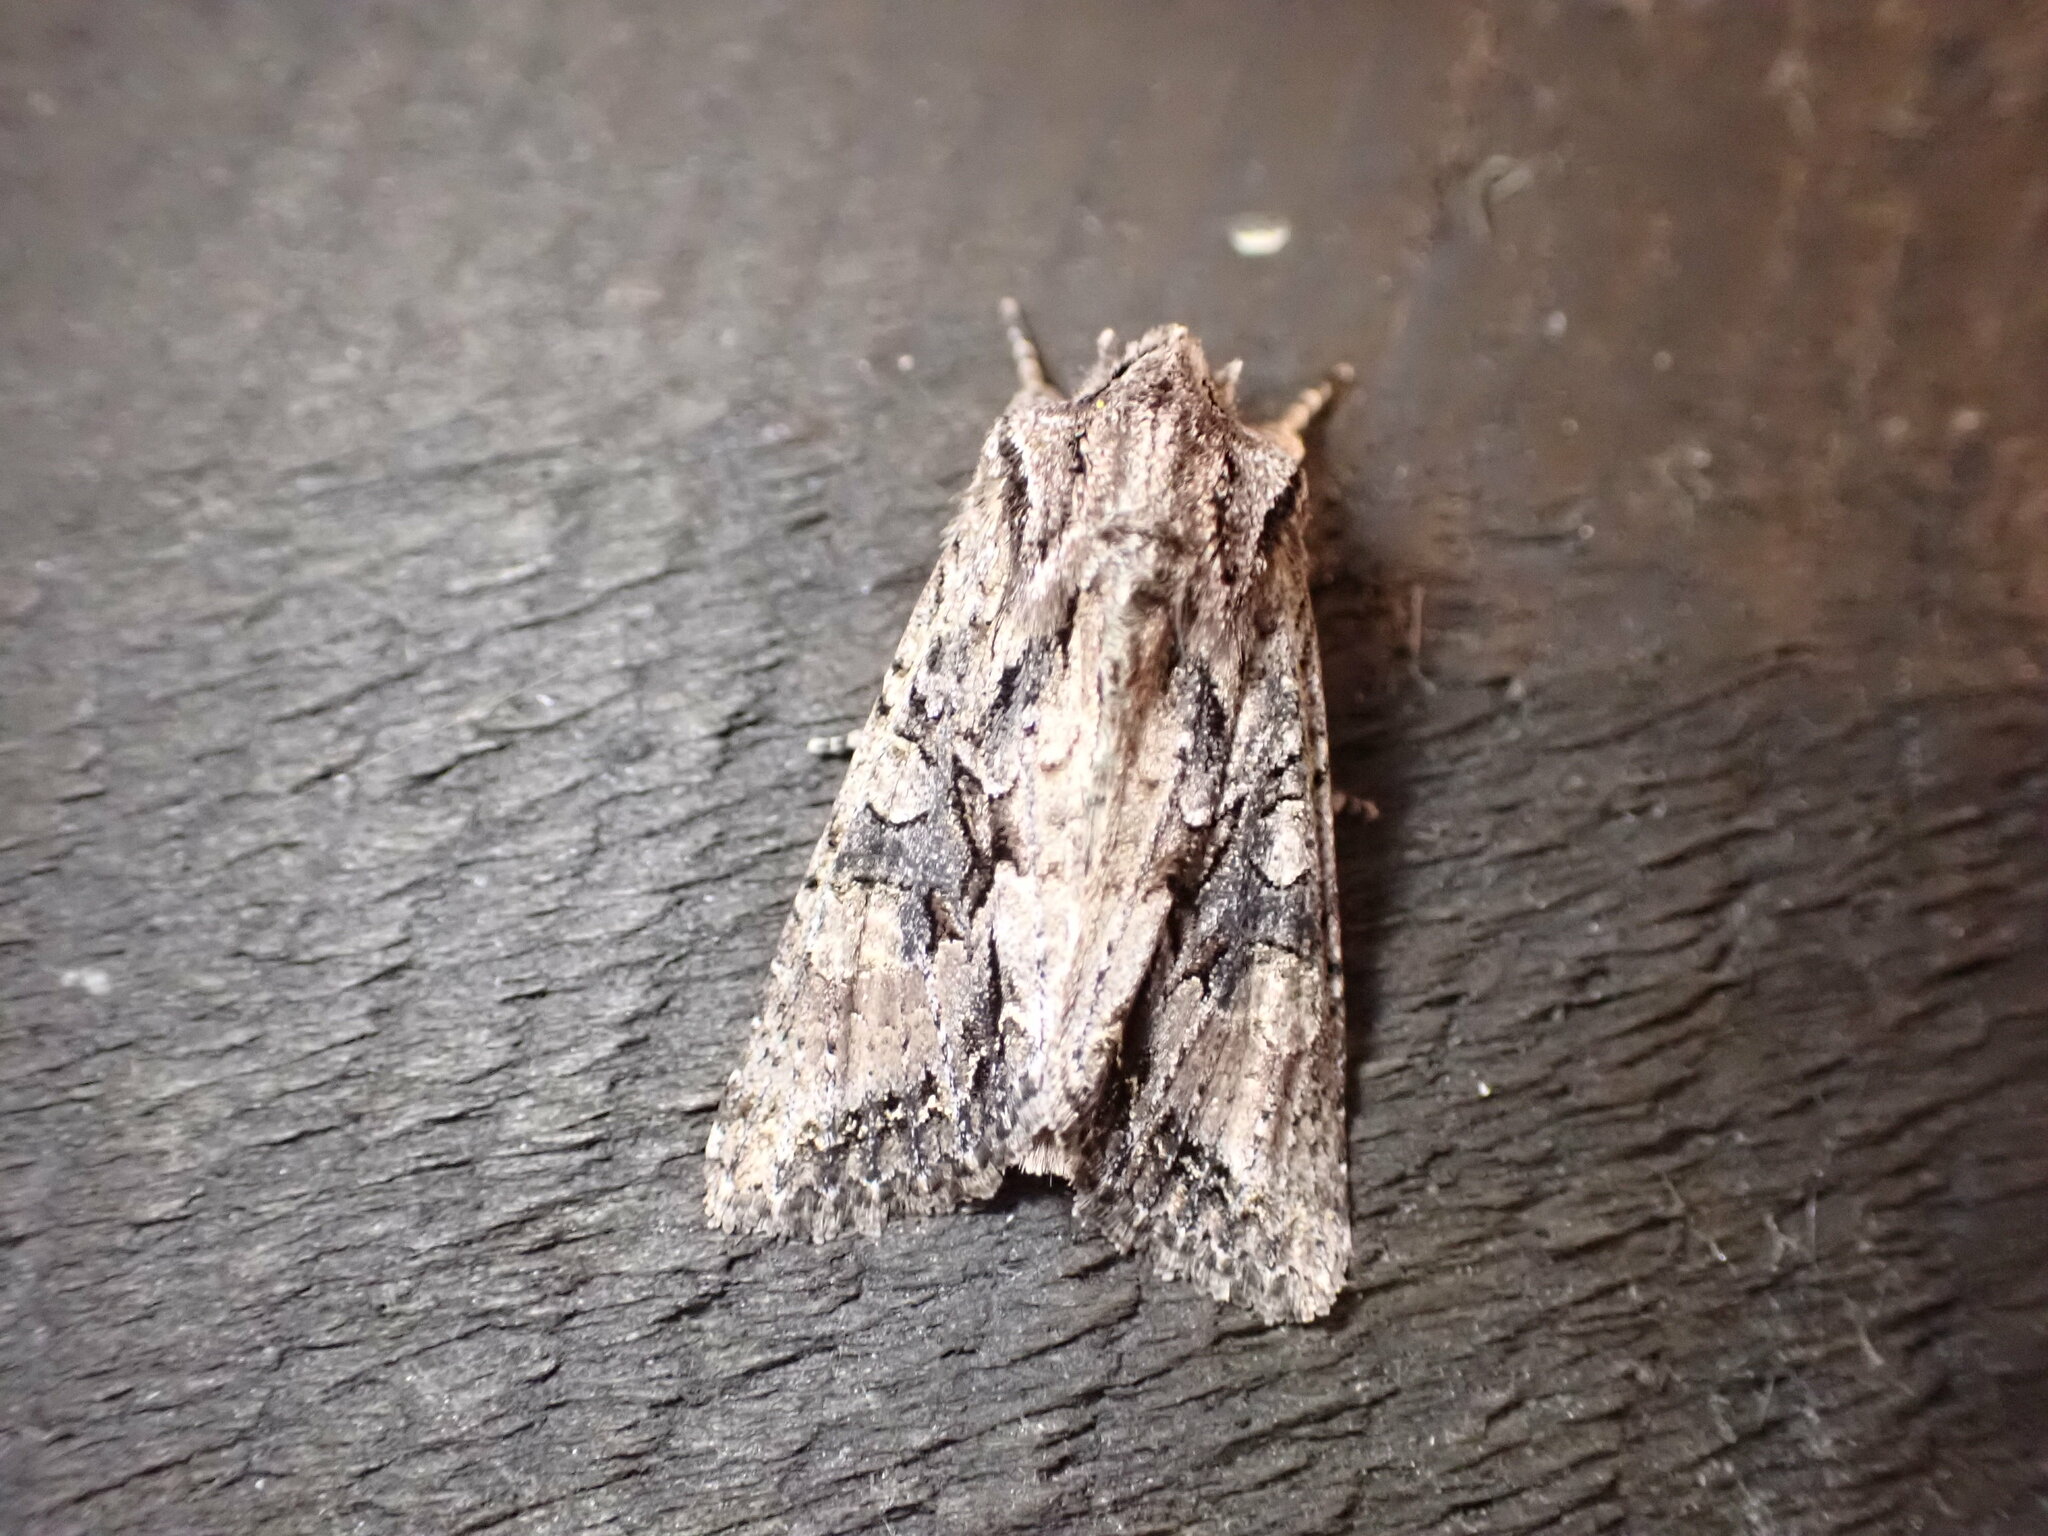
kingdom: Animalia
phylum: Arthropoda
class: Insecta
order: Lepidoptera
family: Noctuidae
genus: Ichneutica
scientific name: Ichneutica mutans
